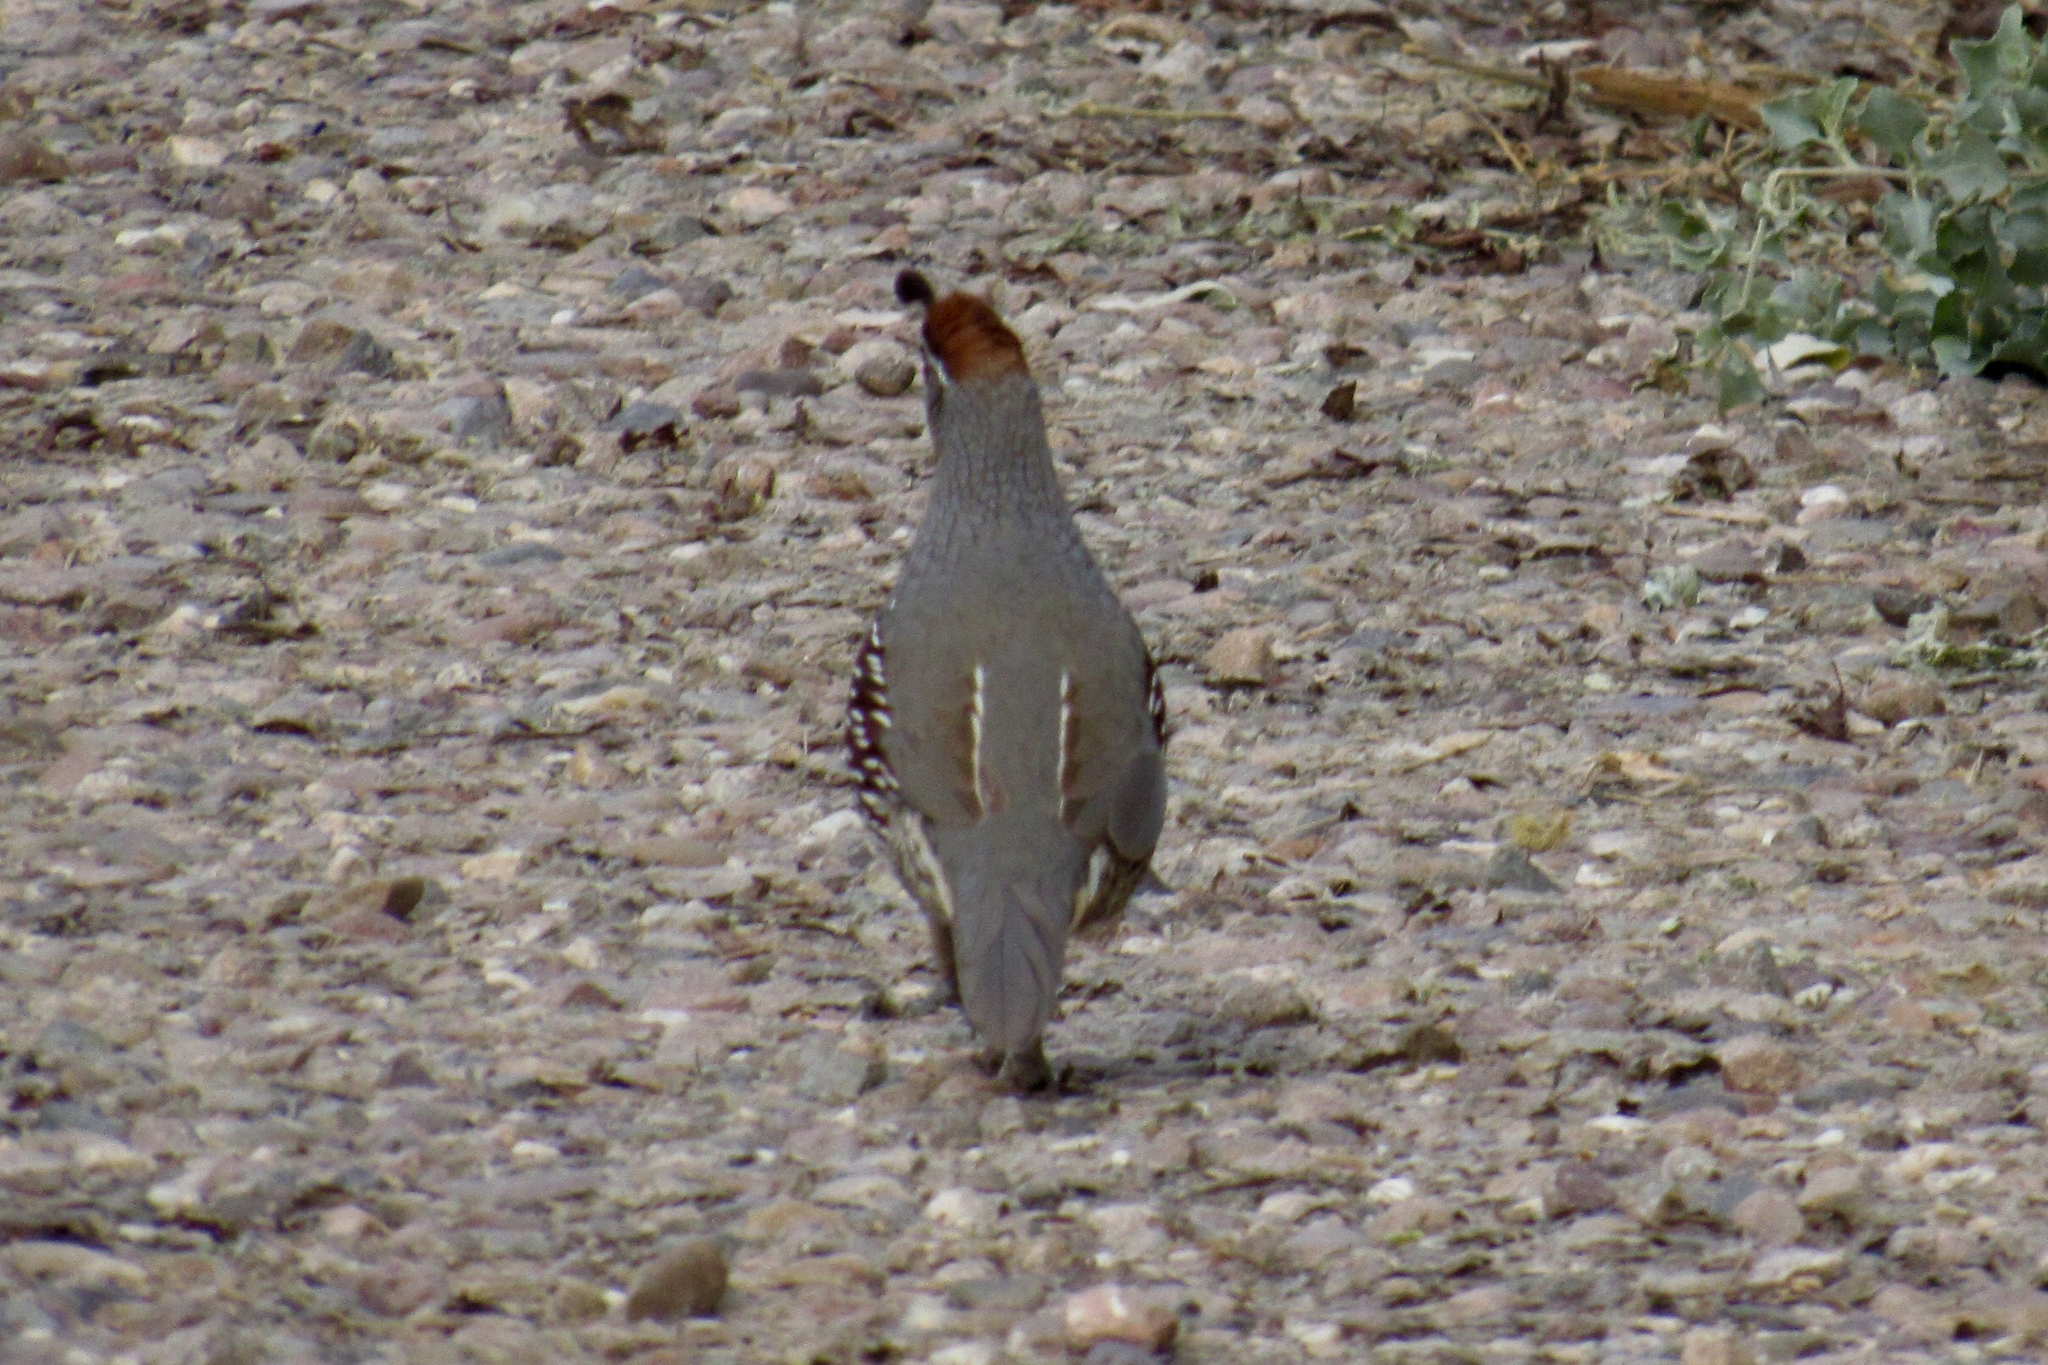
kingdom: Animalia
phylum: Chordata
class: Aves
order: Galliformes
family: Odontophoridae
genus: Callipepla
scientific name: Callipepla gambelii
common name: Gambel's quail
